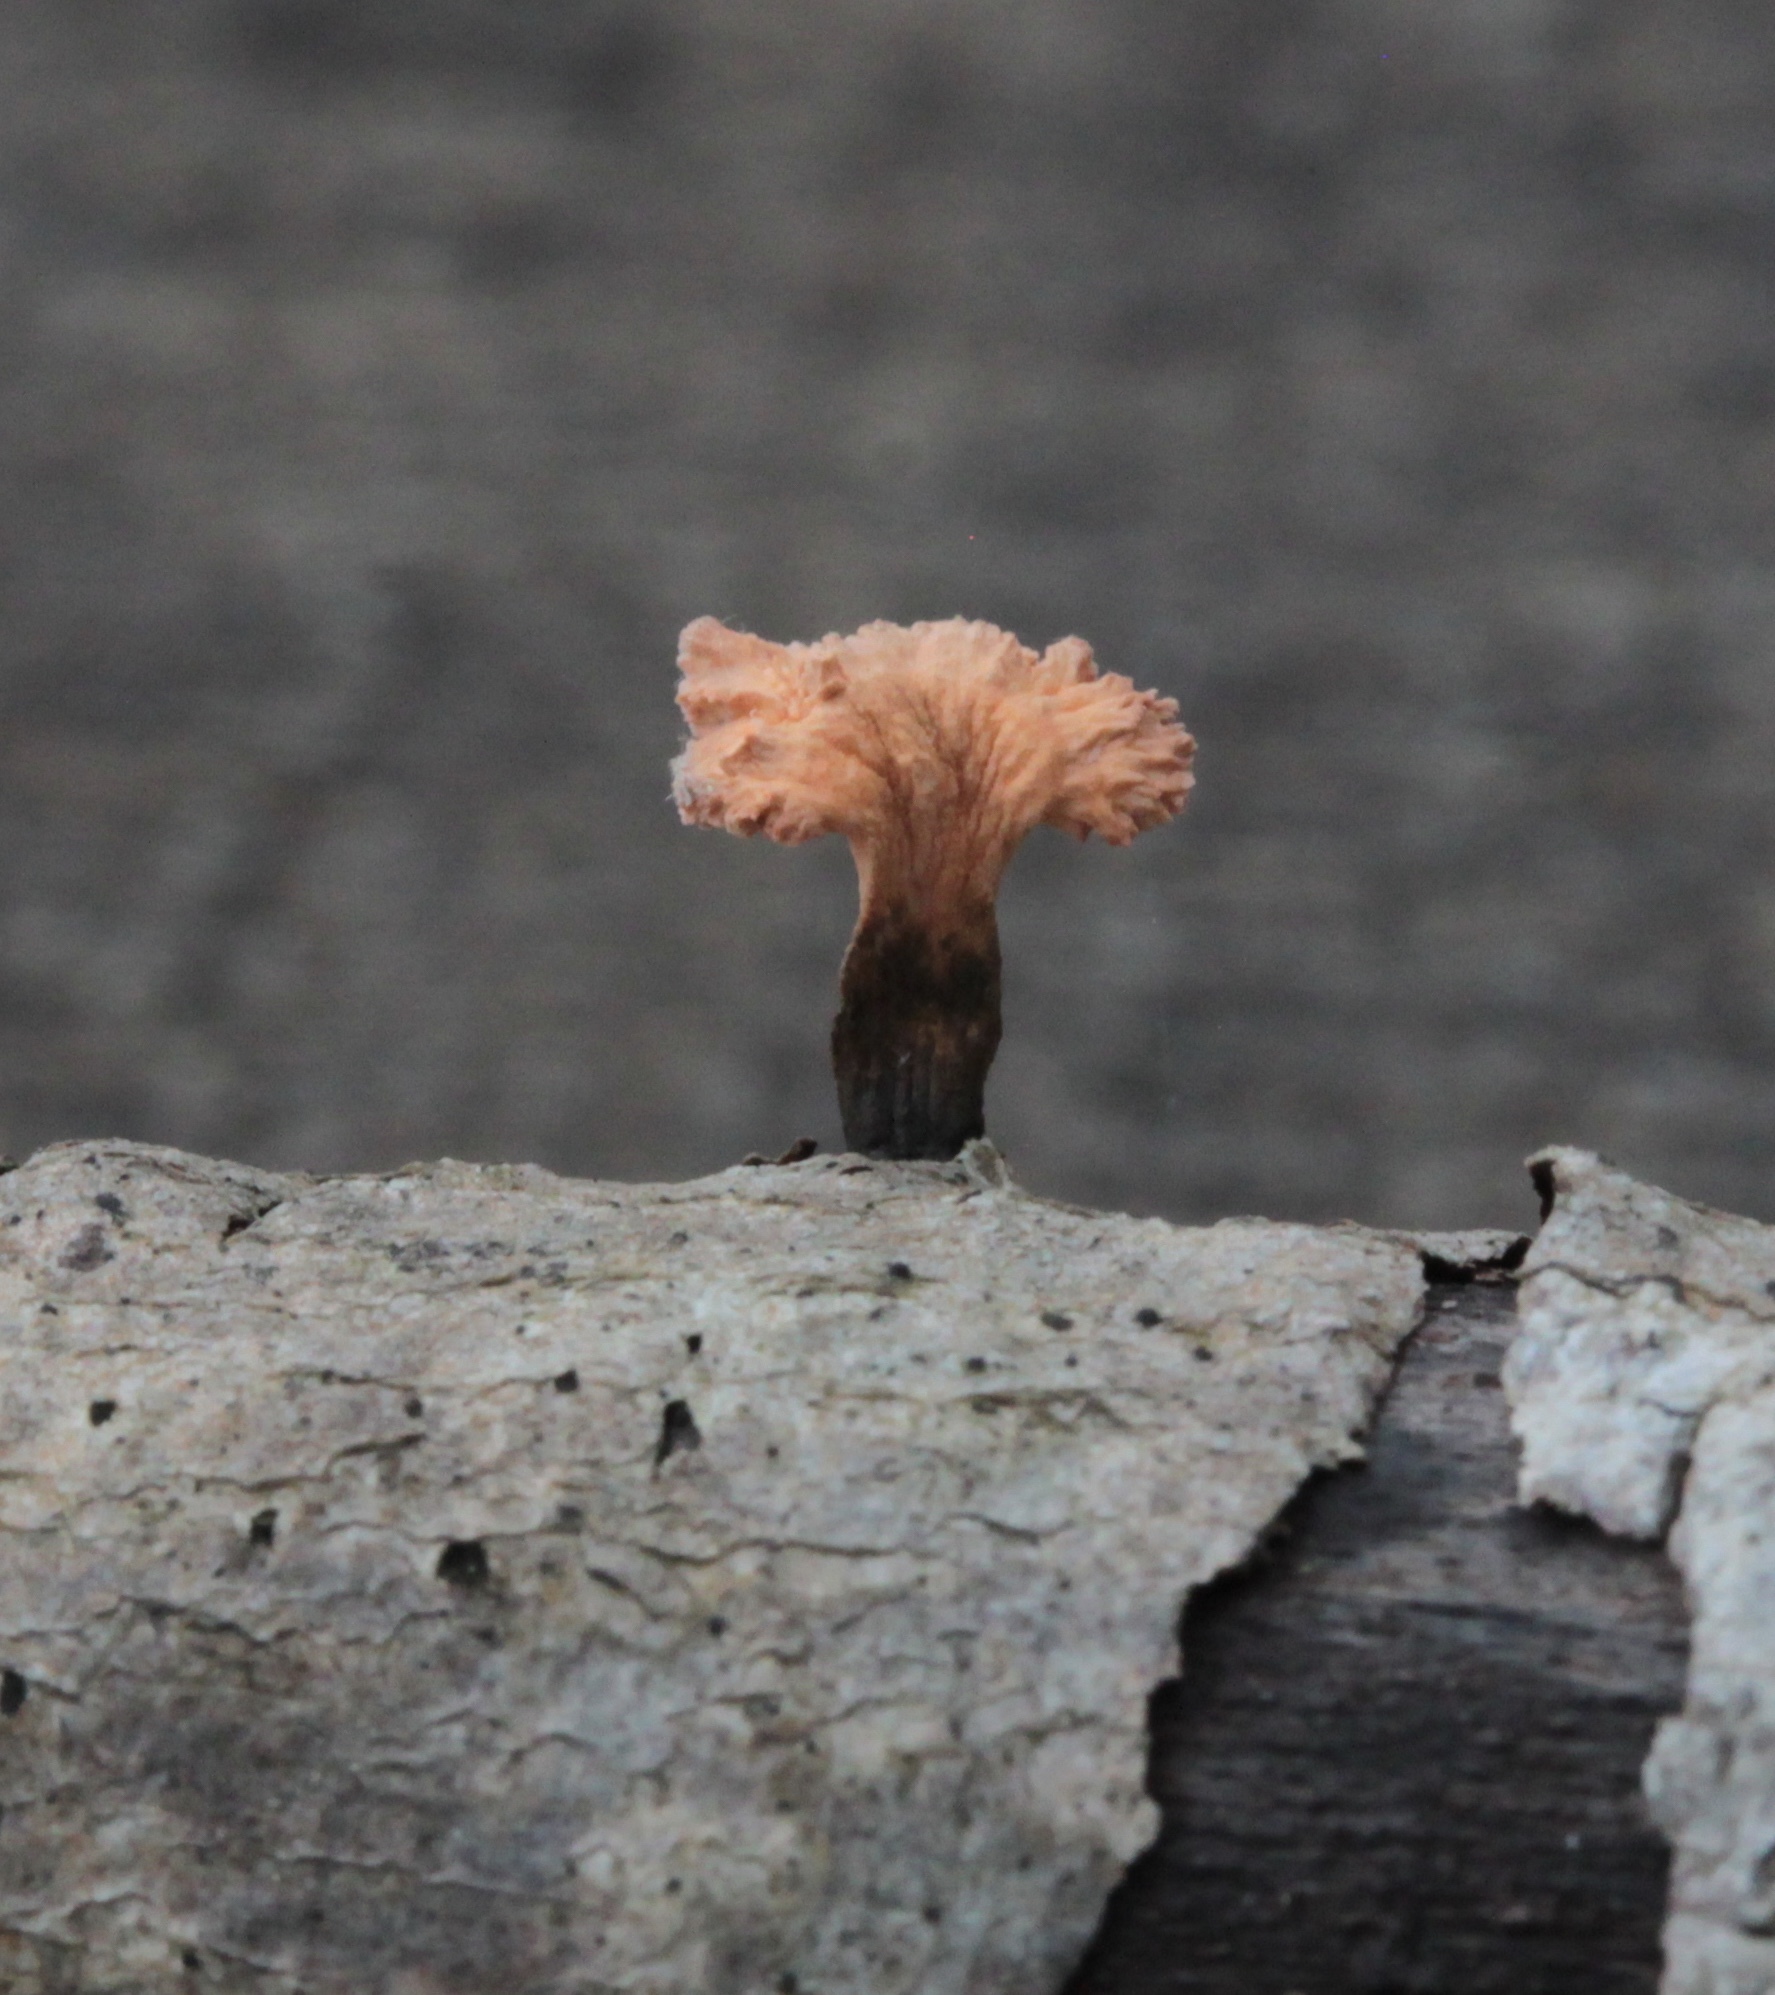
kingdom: Fungi
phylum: Ascomycota
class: Sordariomycetes
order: Xylariales
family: Xylariaceae
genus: Xylaria
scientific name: Xylaria cubensis
